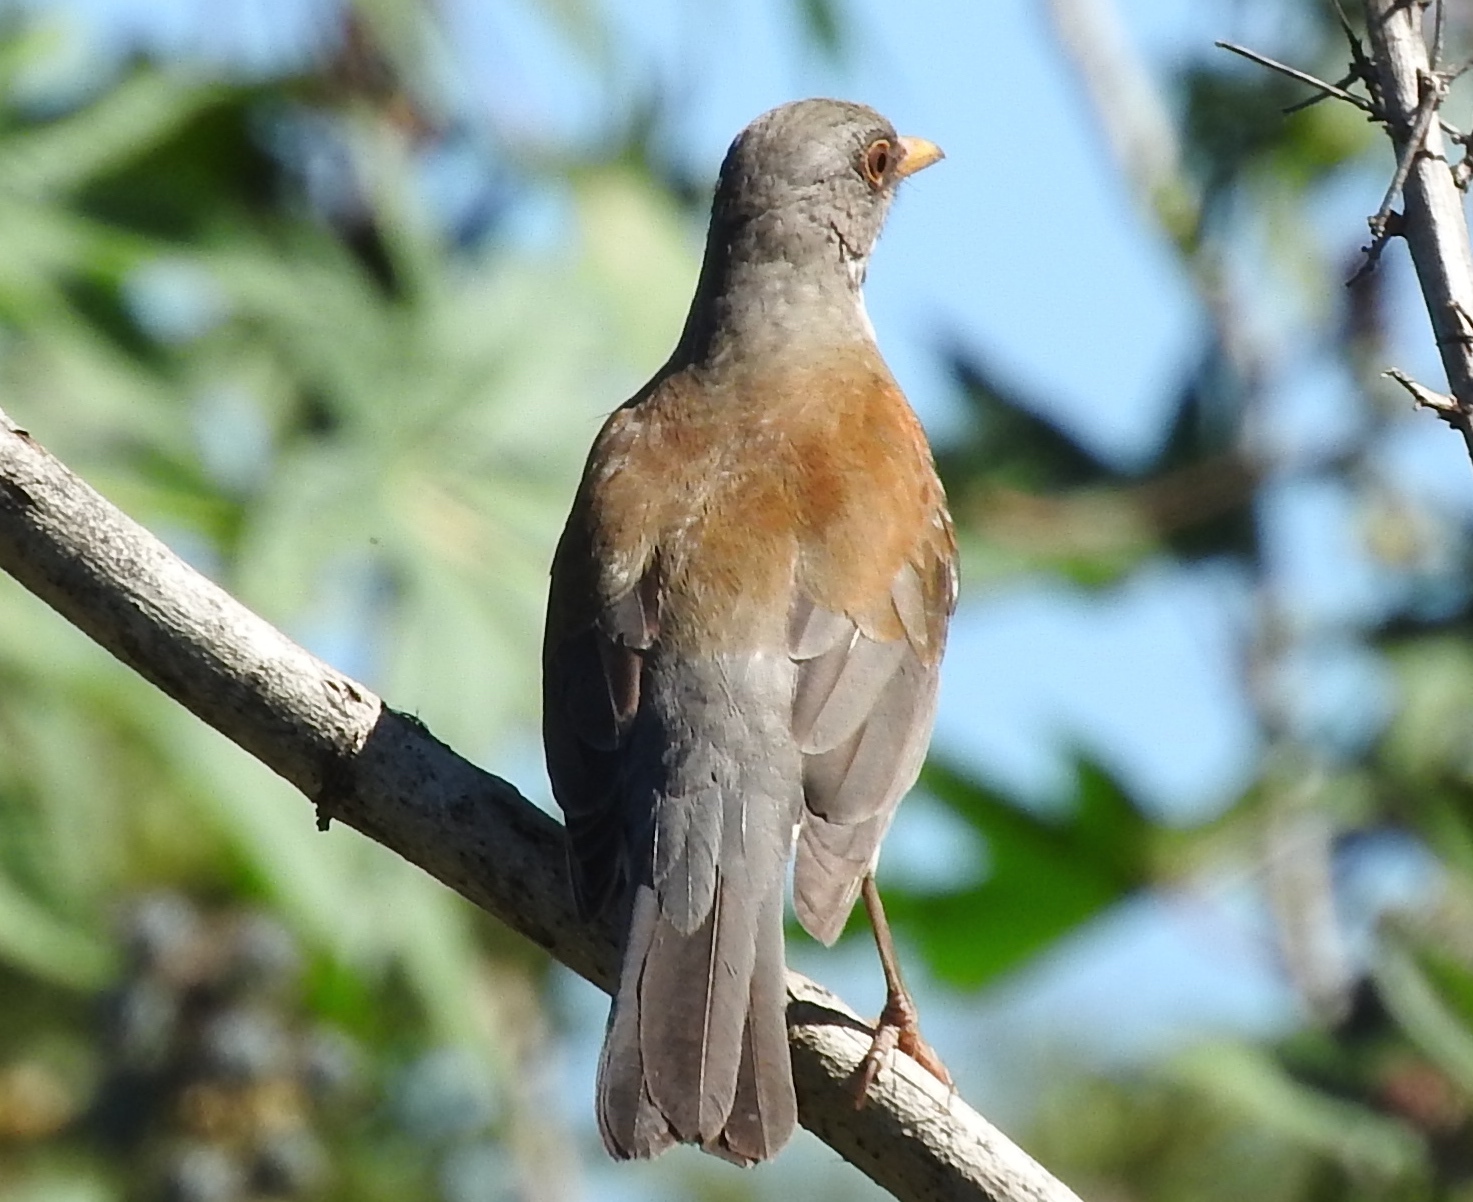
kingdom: Animalia
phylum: Chordata
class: Aves
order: Passeriformes
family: Turdidae
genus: Turdus
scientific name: Turdus rufopalliatus
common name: Rufous-backed robin
